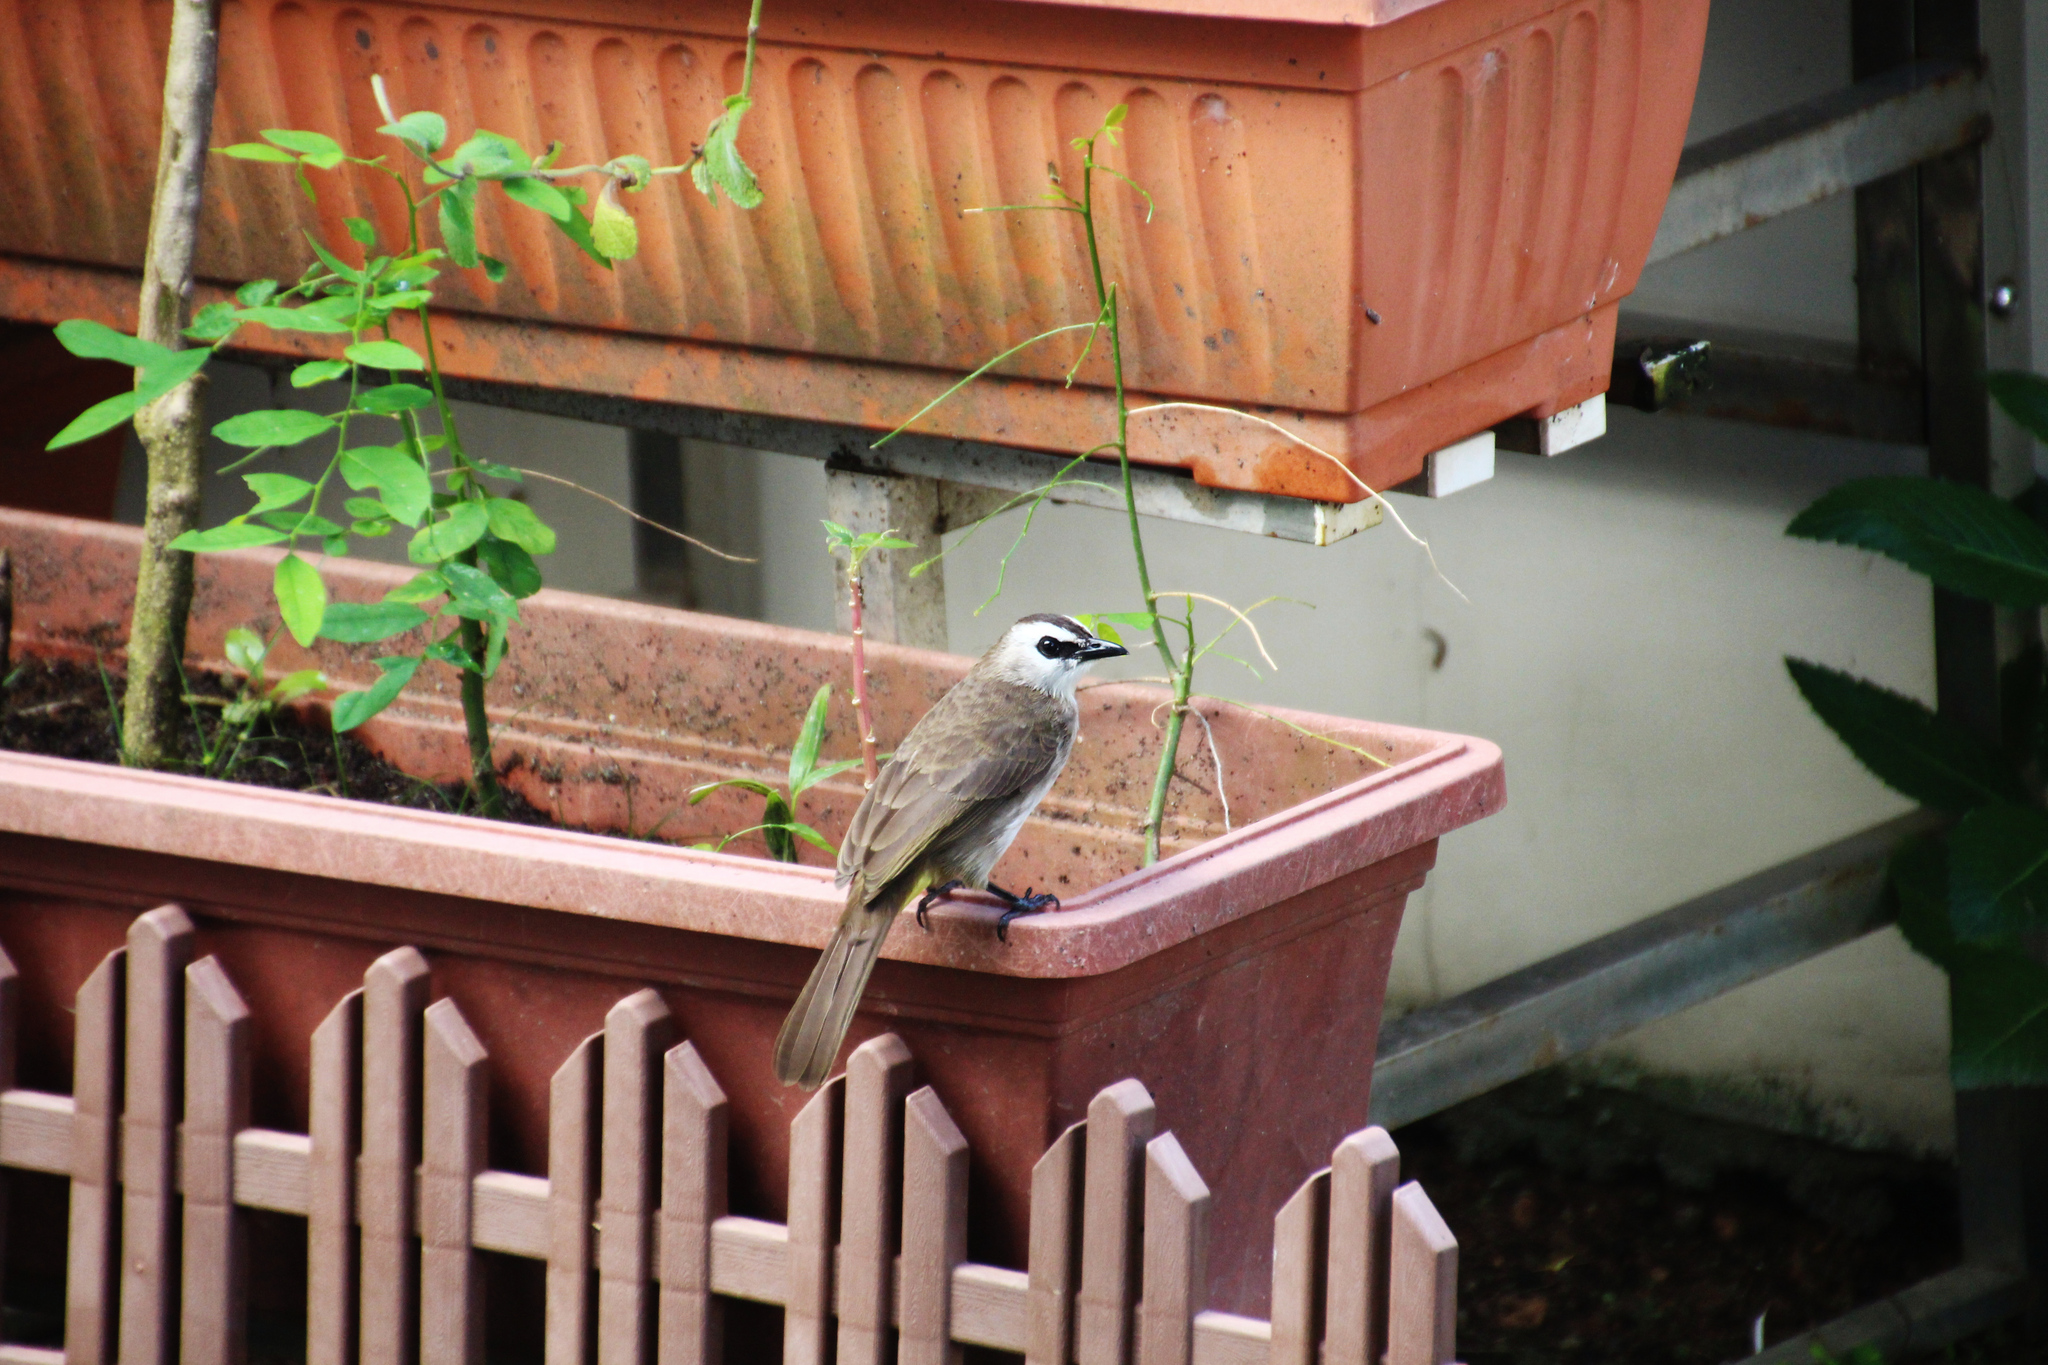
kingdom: Animalia
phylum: Chordata
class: Aves
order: Passeriformes
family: Pycnonotidae
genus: Pycnonotus
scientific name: Pycnonotus goiavier
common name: Yellow-vented bulbul
